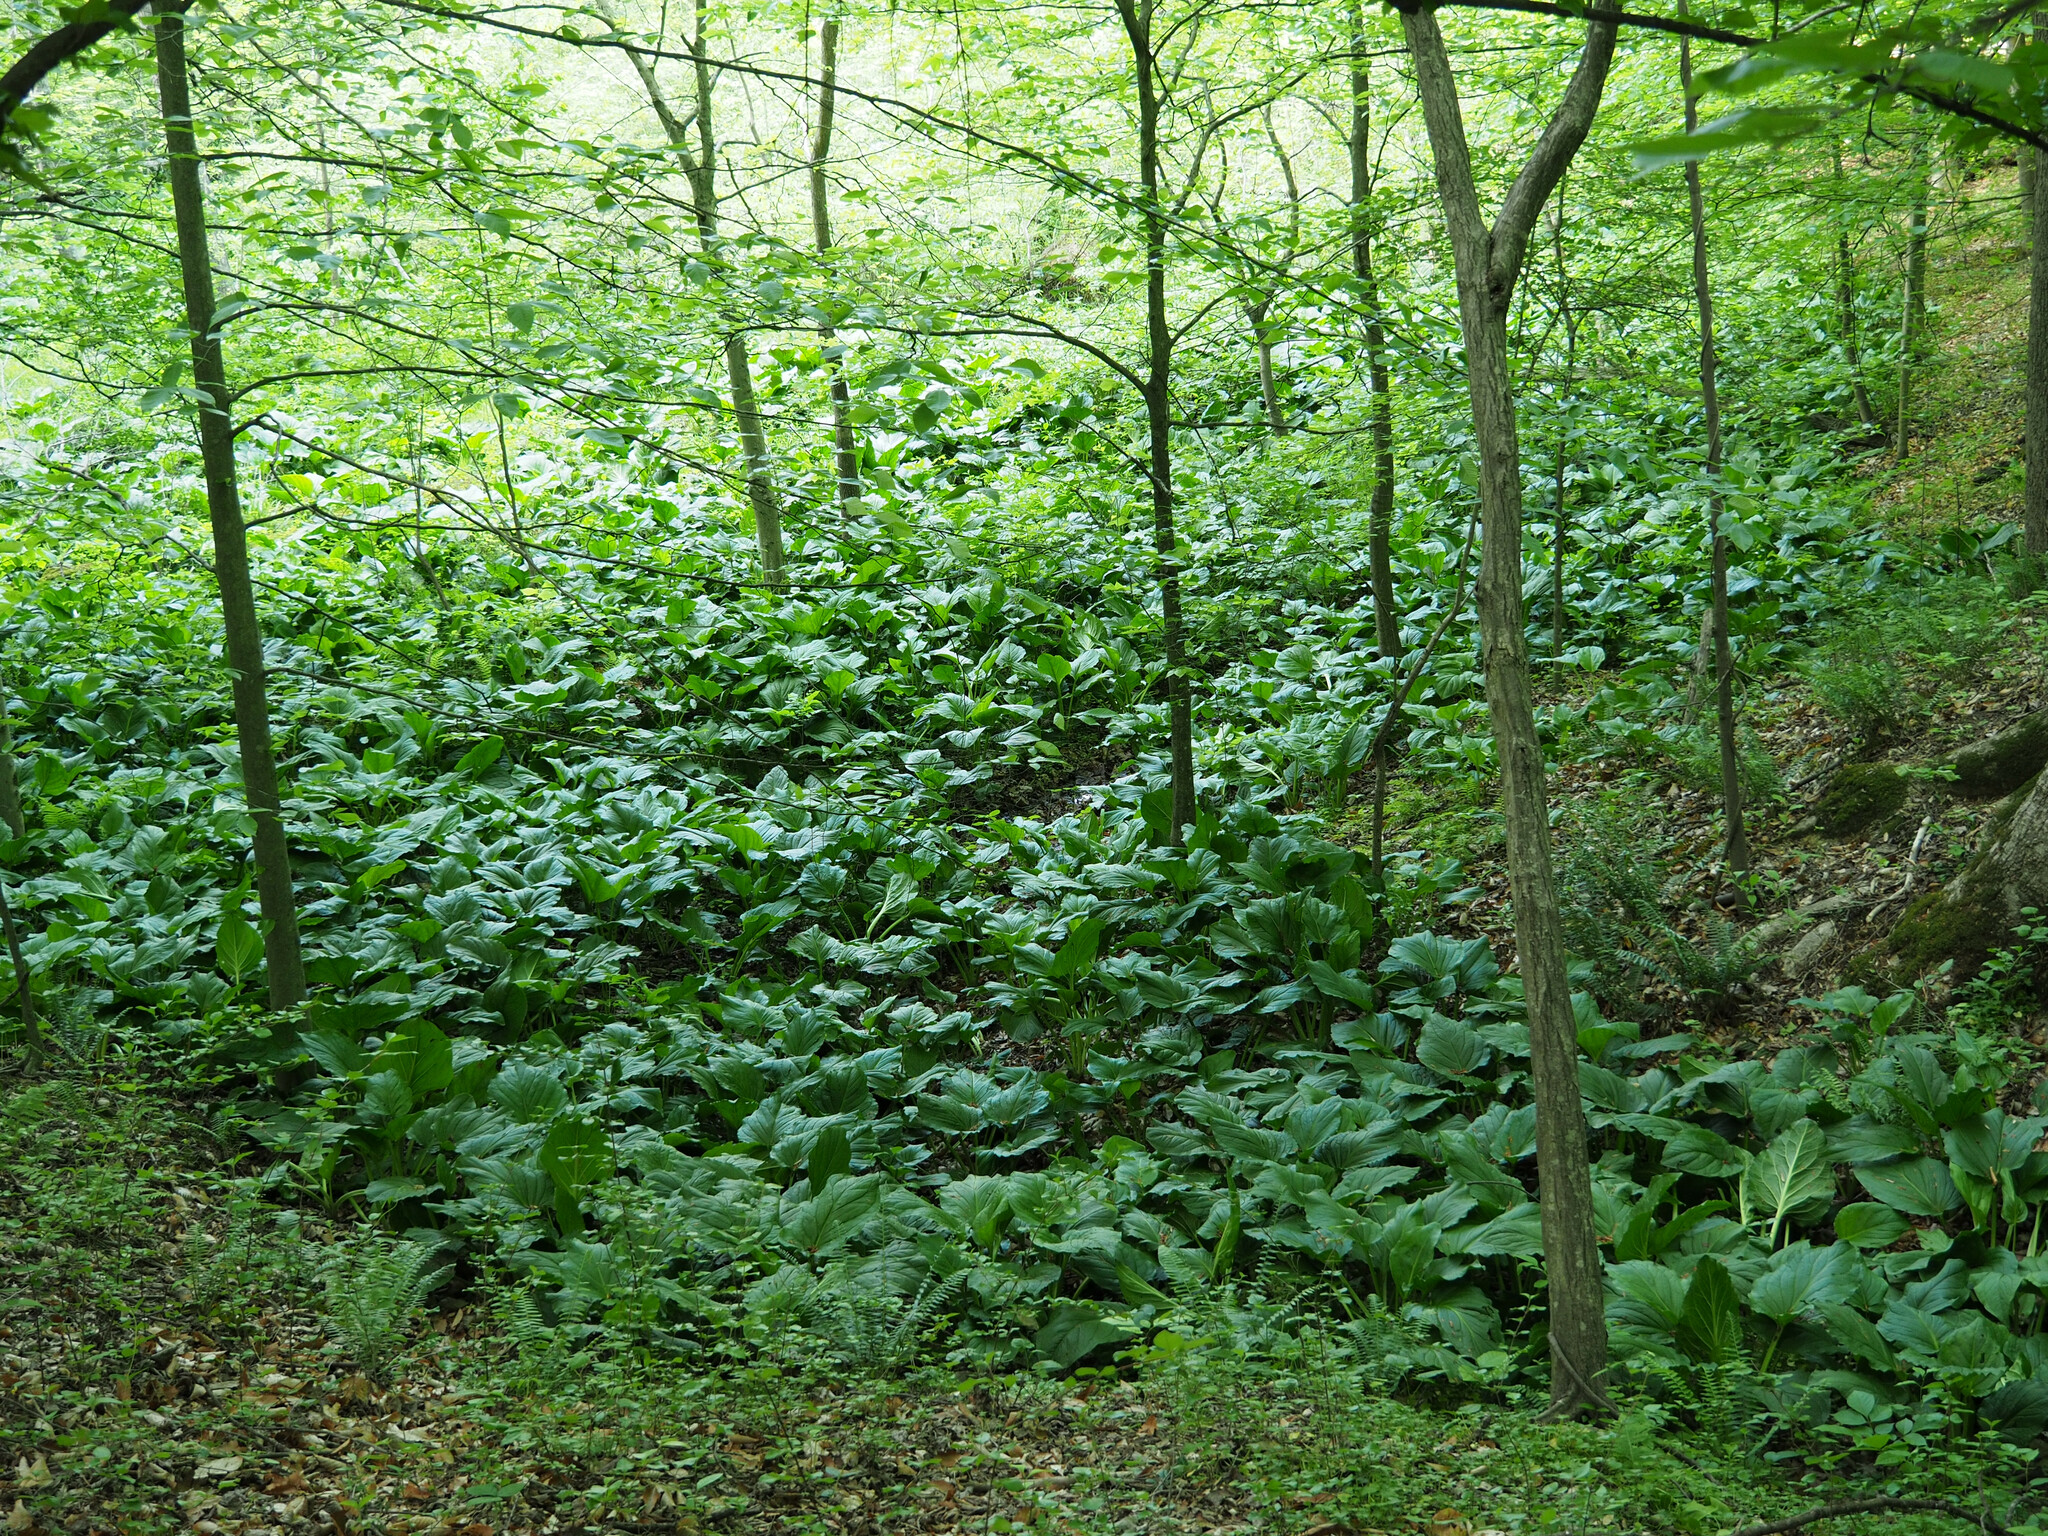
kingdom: Plantae
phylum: Tracheophyta
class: Liliopsida
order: Alismatales
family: Araceae
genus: Symplocarpus
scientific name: Symplocarpus foetidus
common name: Eastern skunk cabbage
